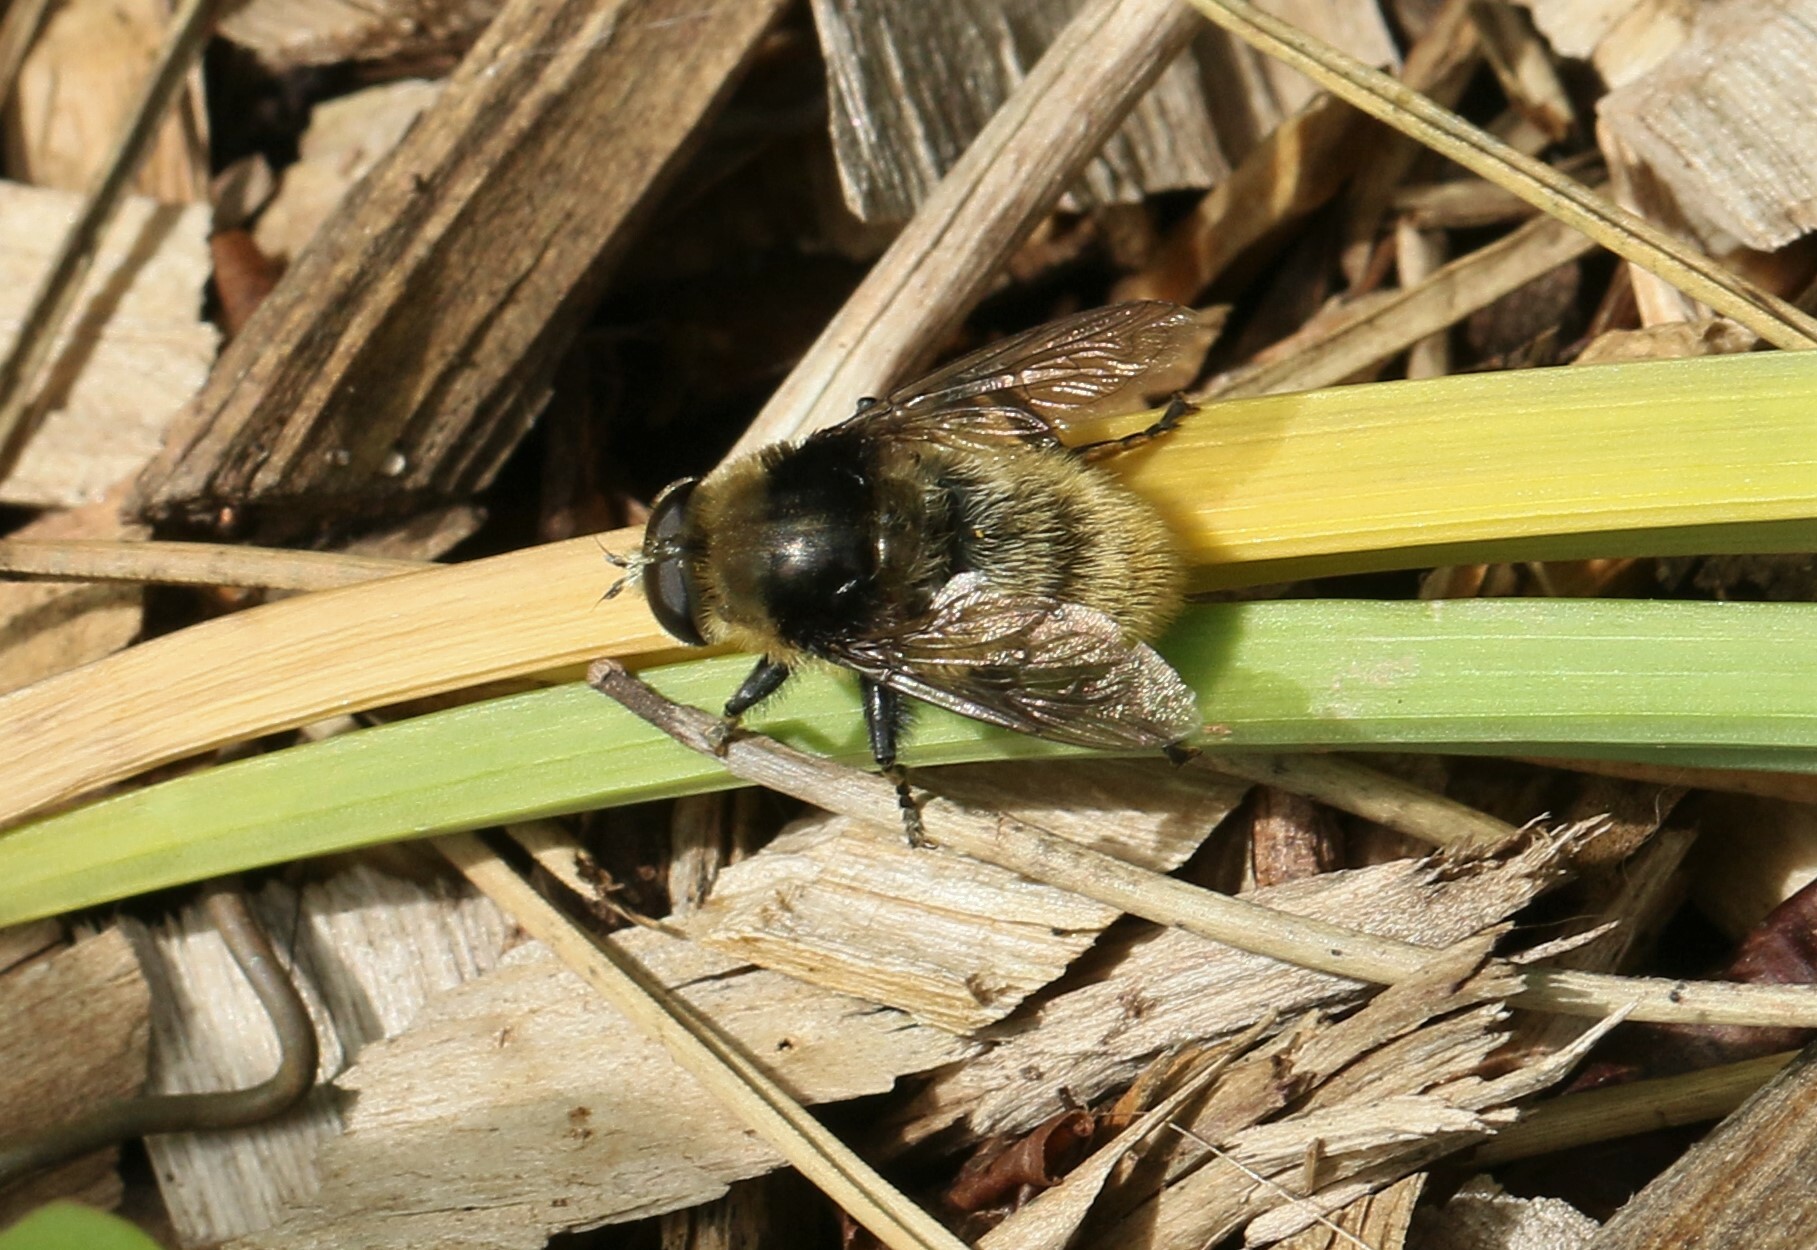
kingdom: Animalia
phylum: Arthropoda
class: Insecta
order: Diptera
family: Syrphidae
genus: Merodon
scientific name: Merodon equestris
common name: Greater bulb-fly
